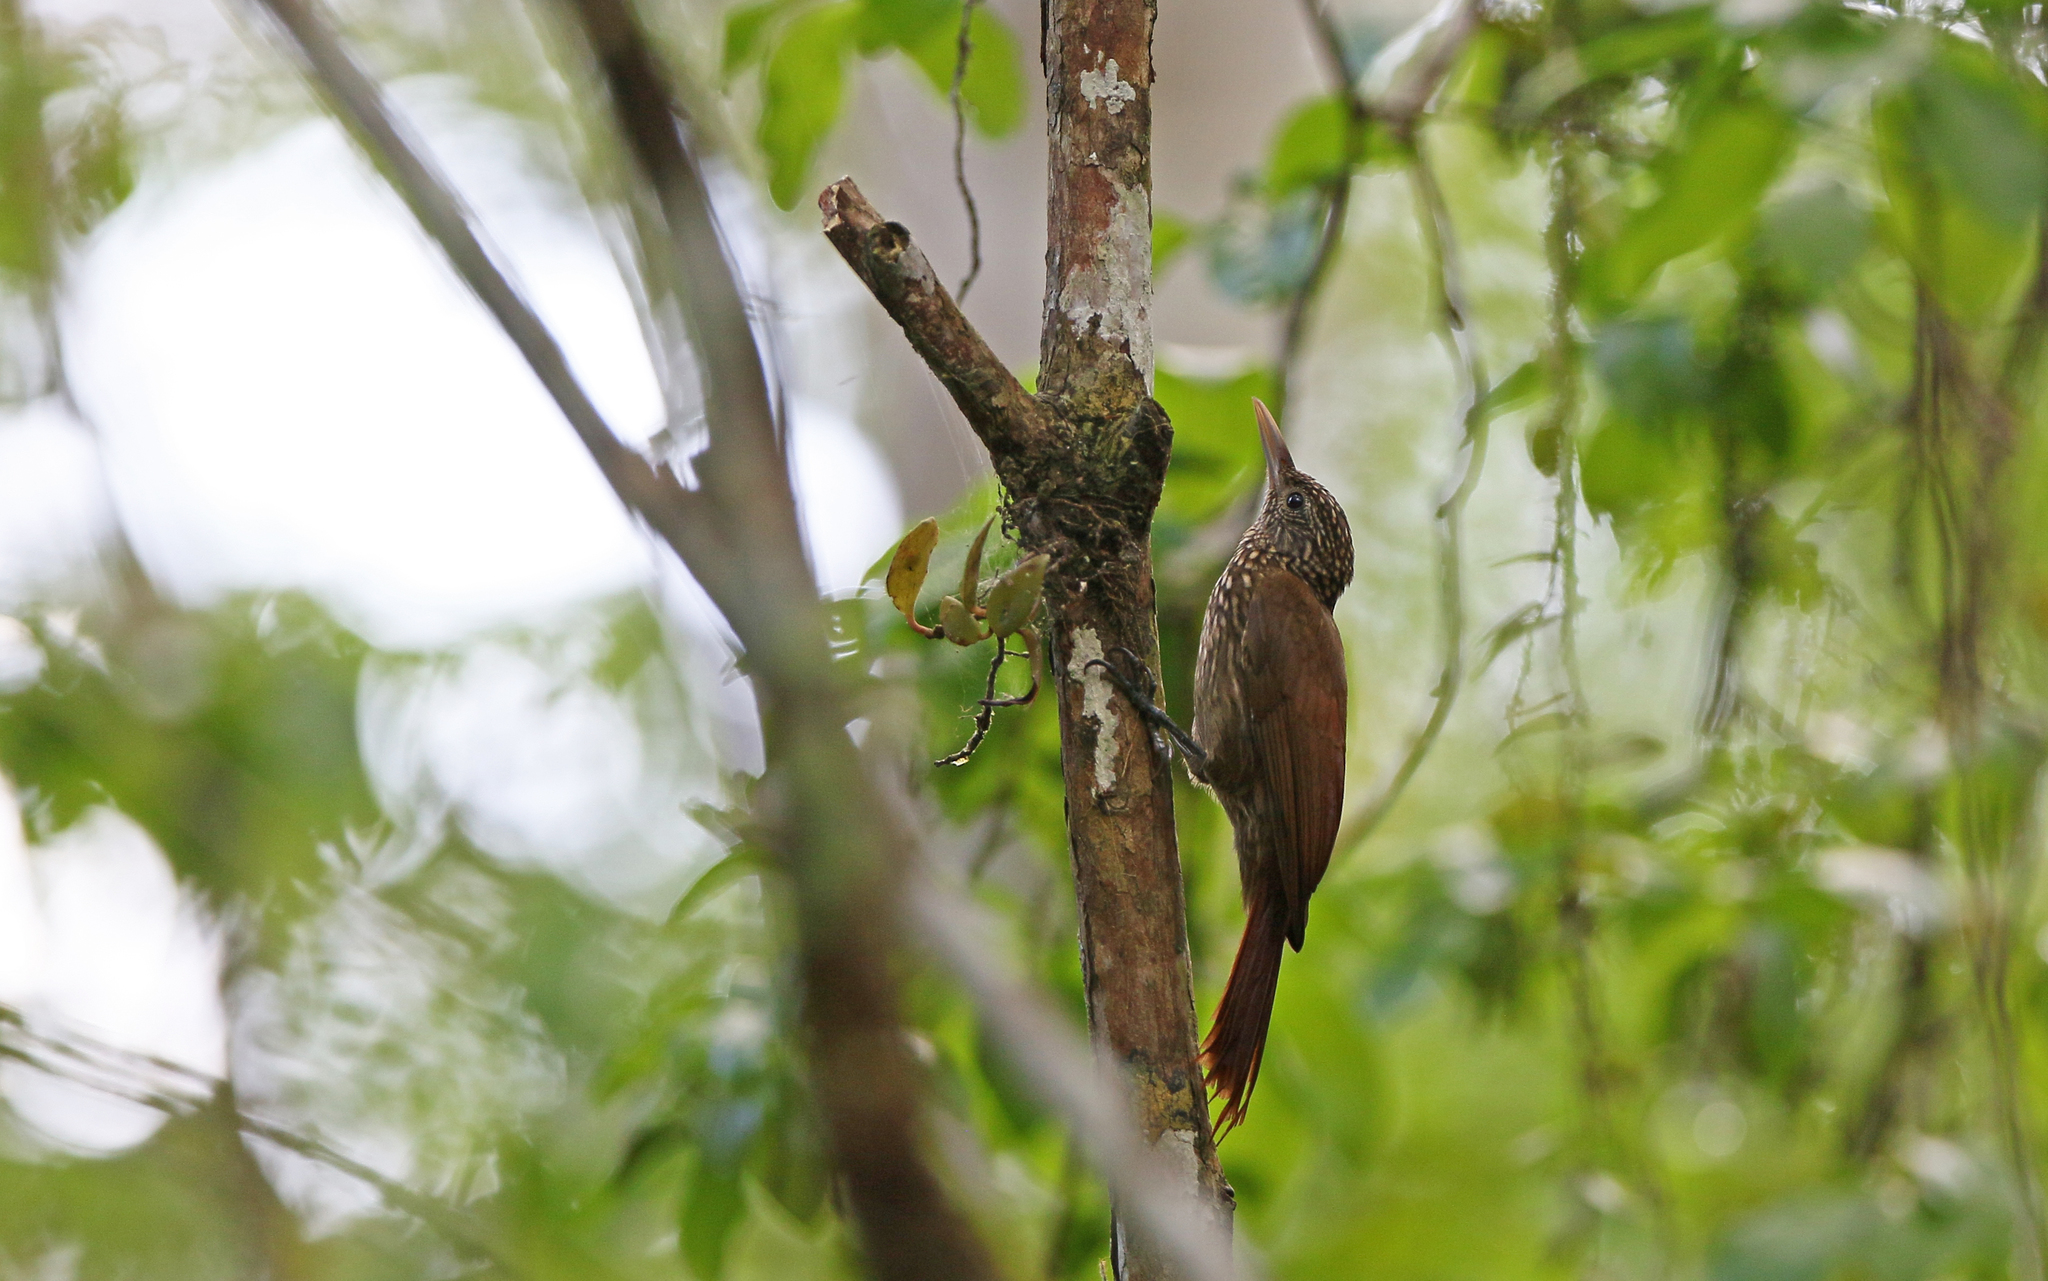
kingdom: Animalia
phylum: Chordata
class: Aves
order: Passeriformes
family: Furnariidae
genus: Xiphorhynchus
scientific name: Xiphorhynchus picus
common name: Straight-billed woodcreeper
